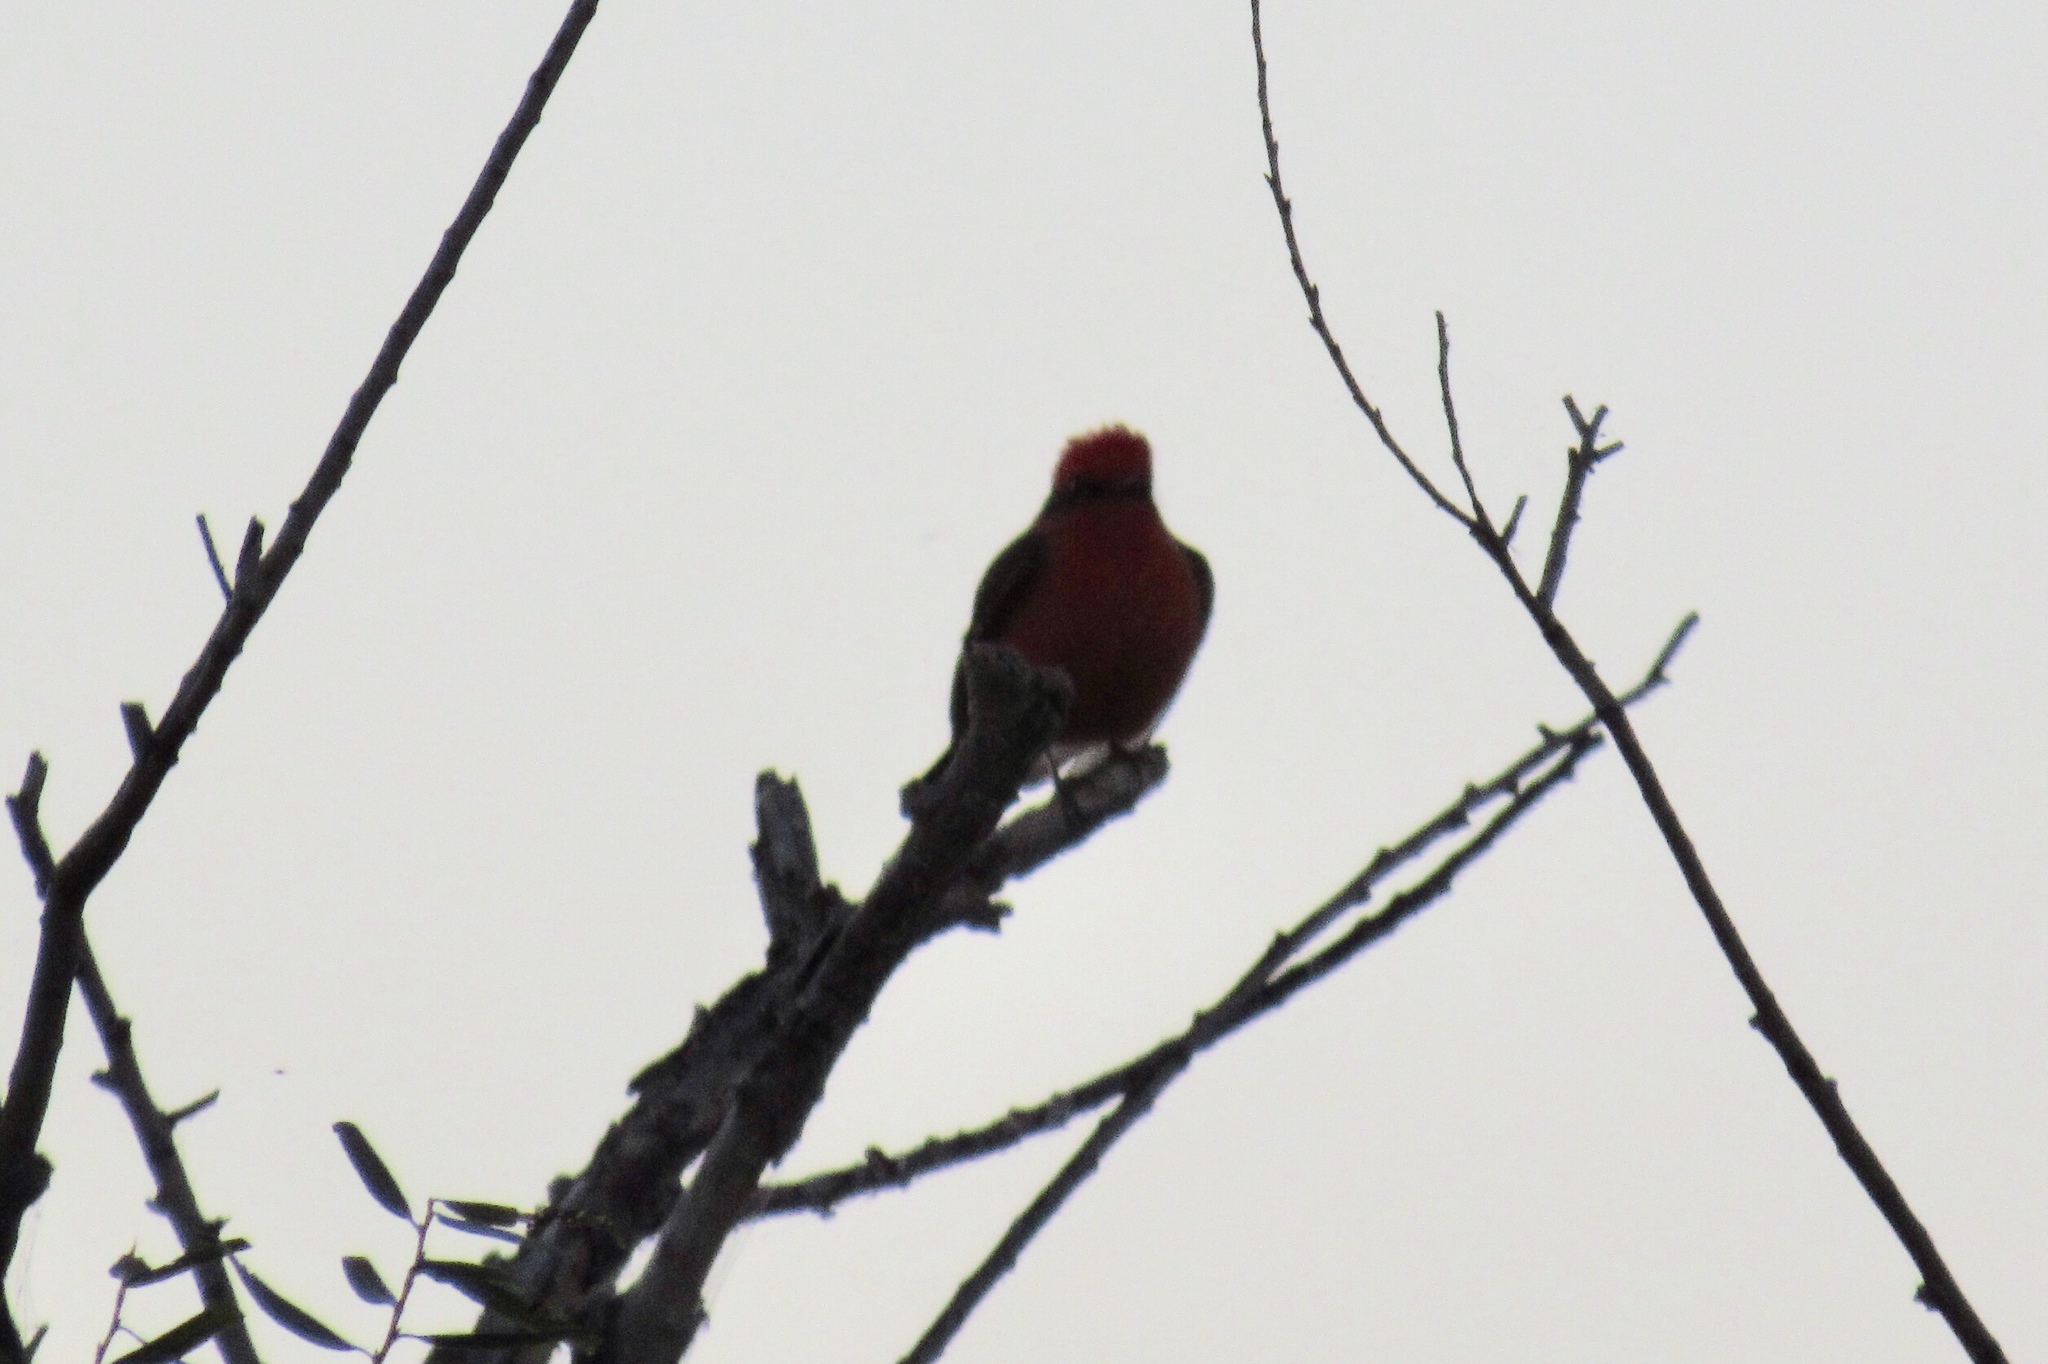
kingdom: Animalia
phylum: Chordata
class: Aves
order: Passeriformes
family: Tyrannidae
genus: Pyrocephalus
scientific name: Pyrocephalus rubinus
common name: Vermilion flycatcher
